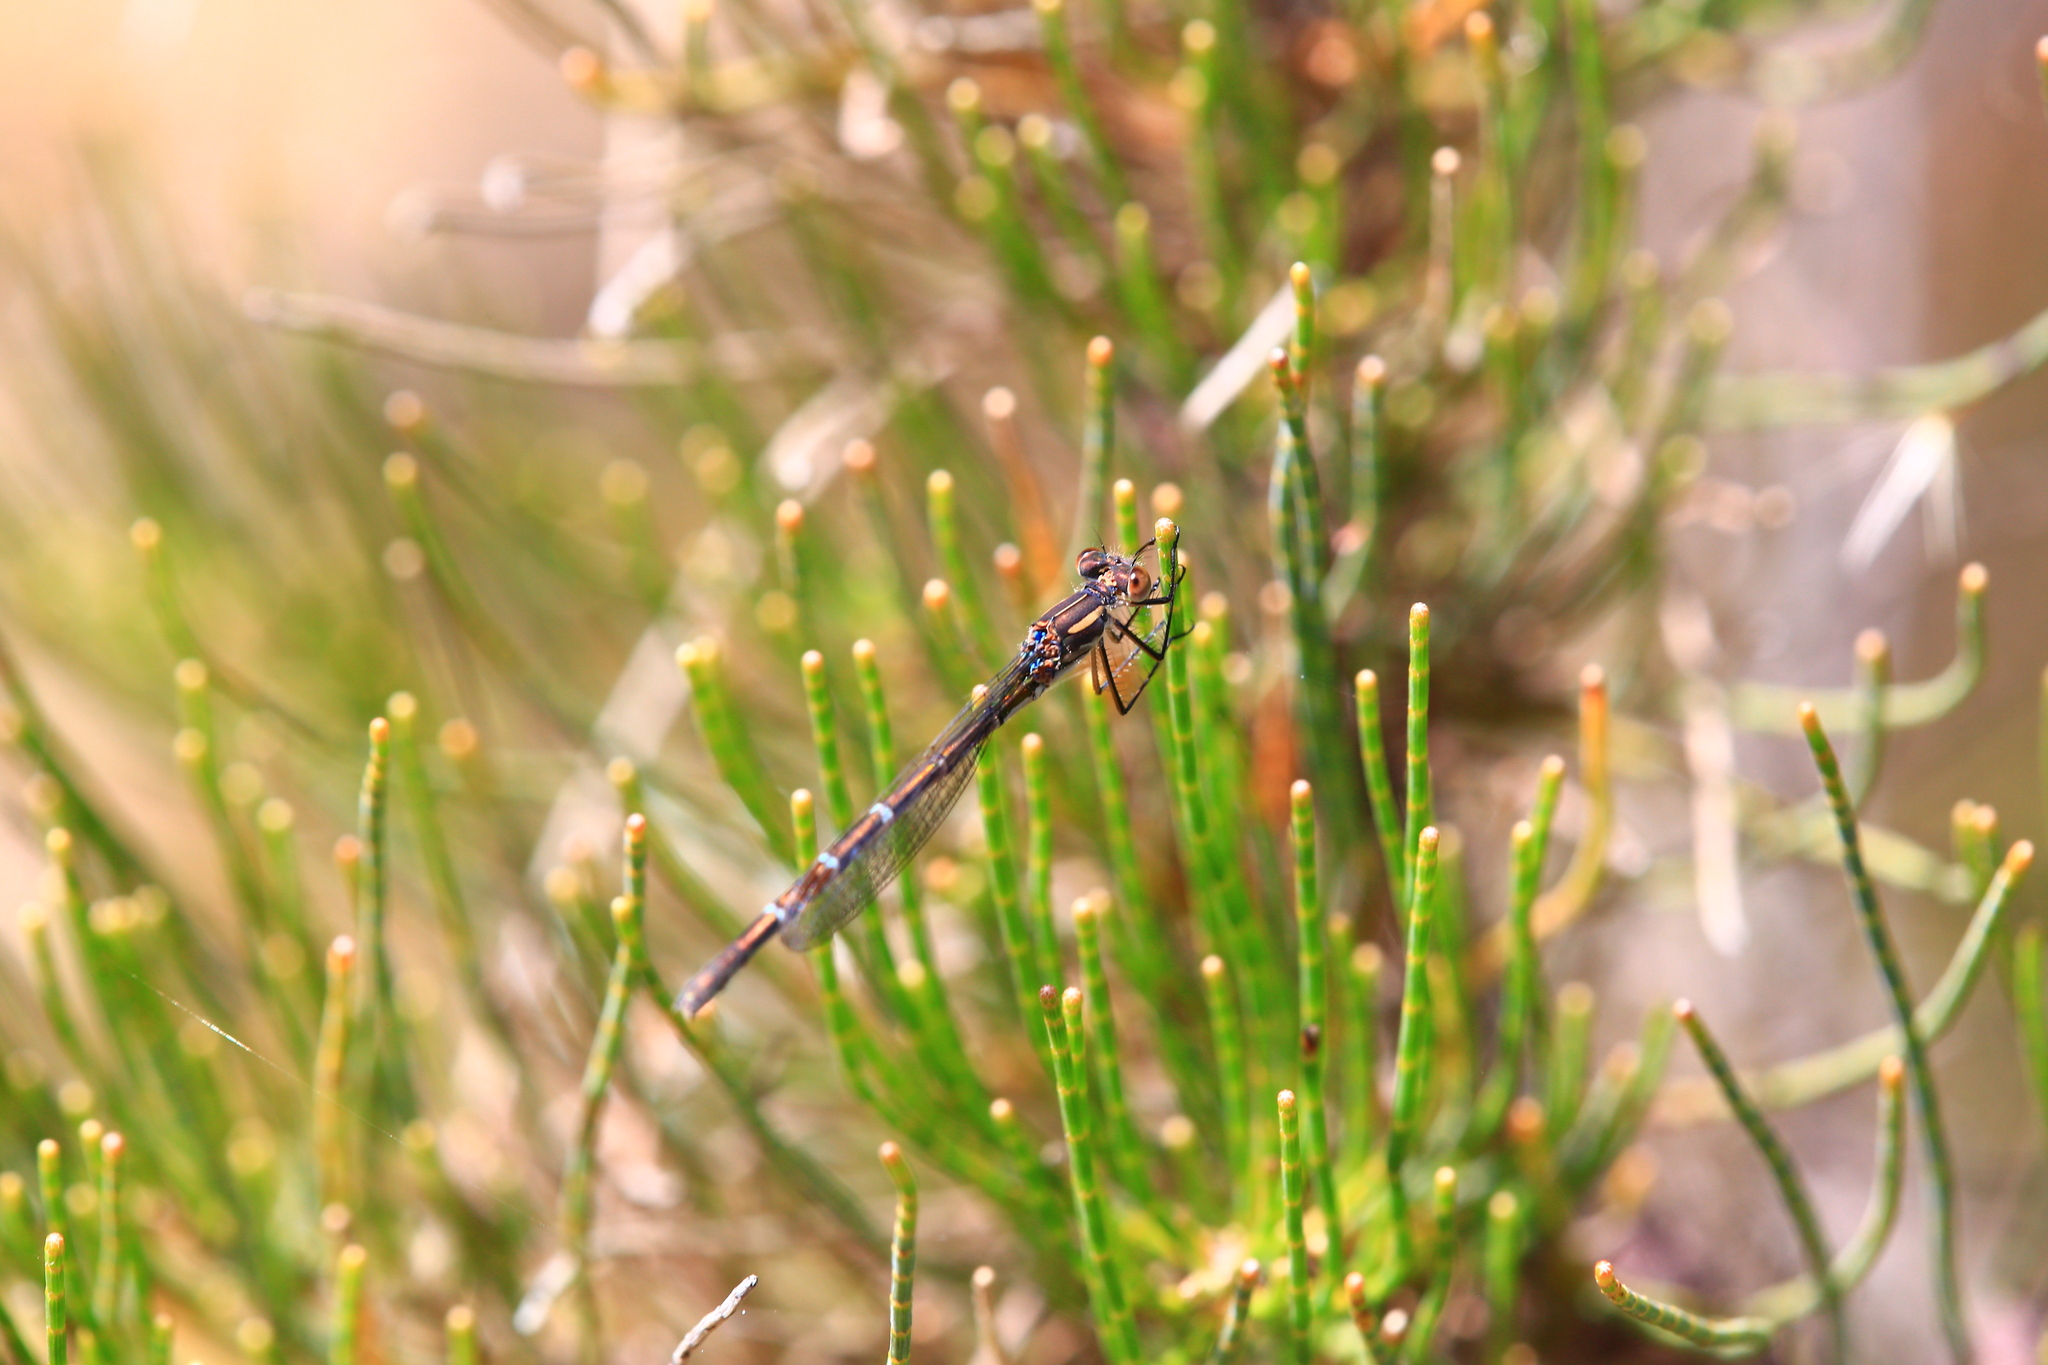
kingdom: Animalia
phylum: Arthropoda
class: Insecta
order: Odonata
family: Lestidae
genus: Austrolestes
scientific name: Austrolestes annulosus
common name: Blue ringtail
